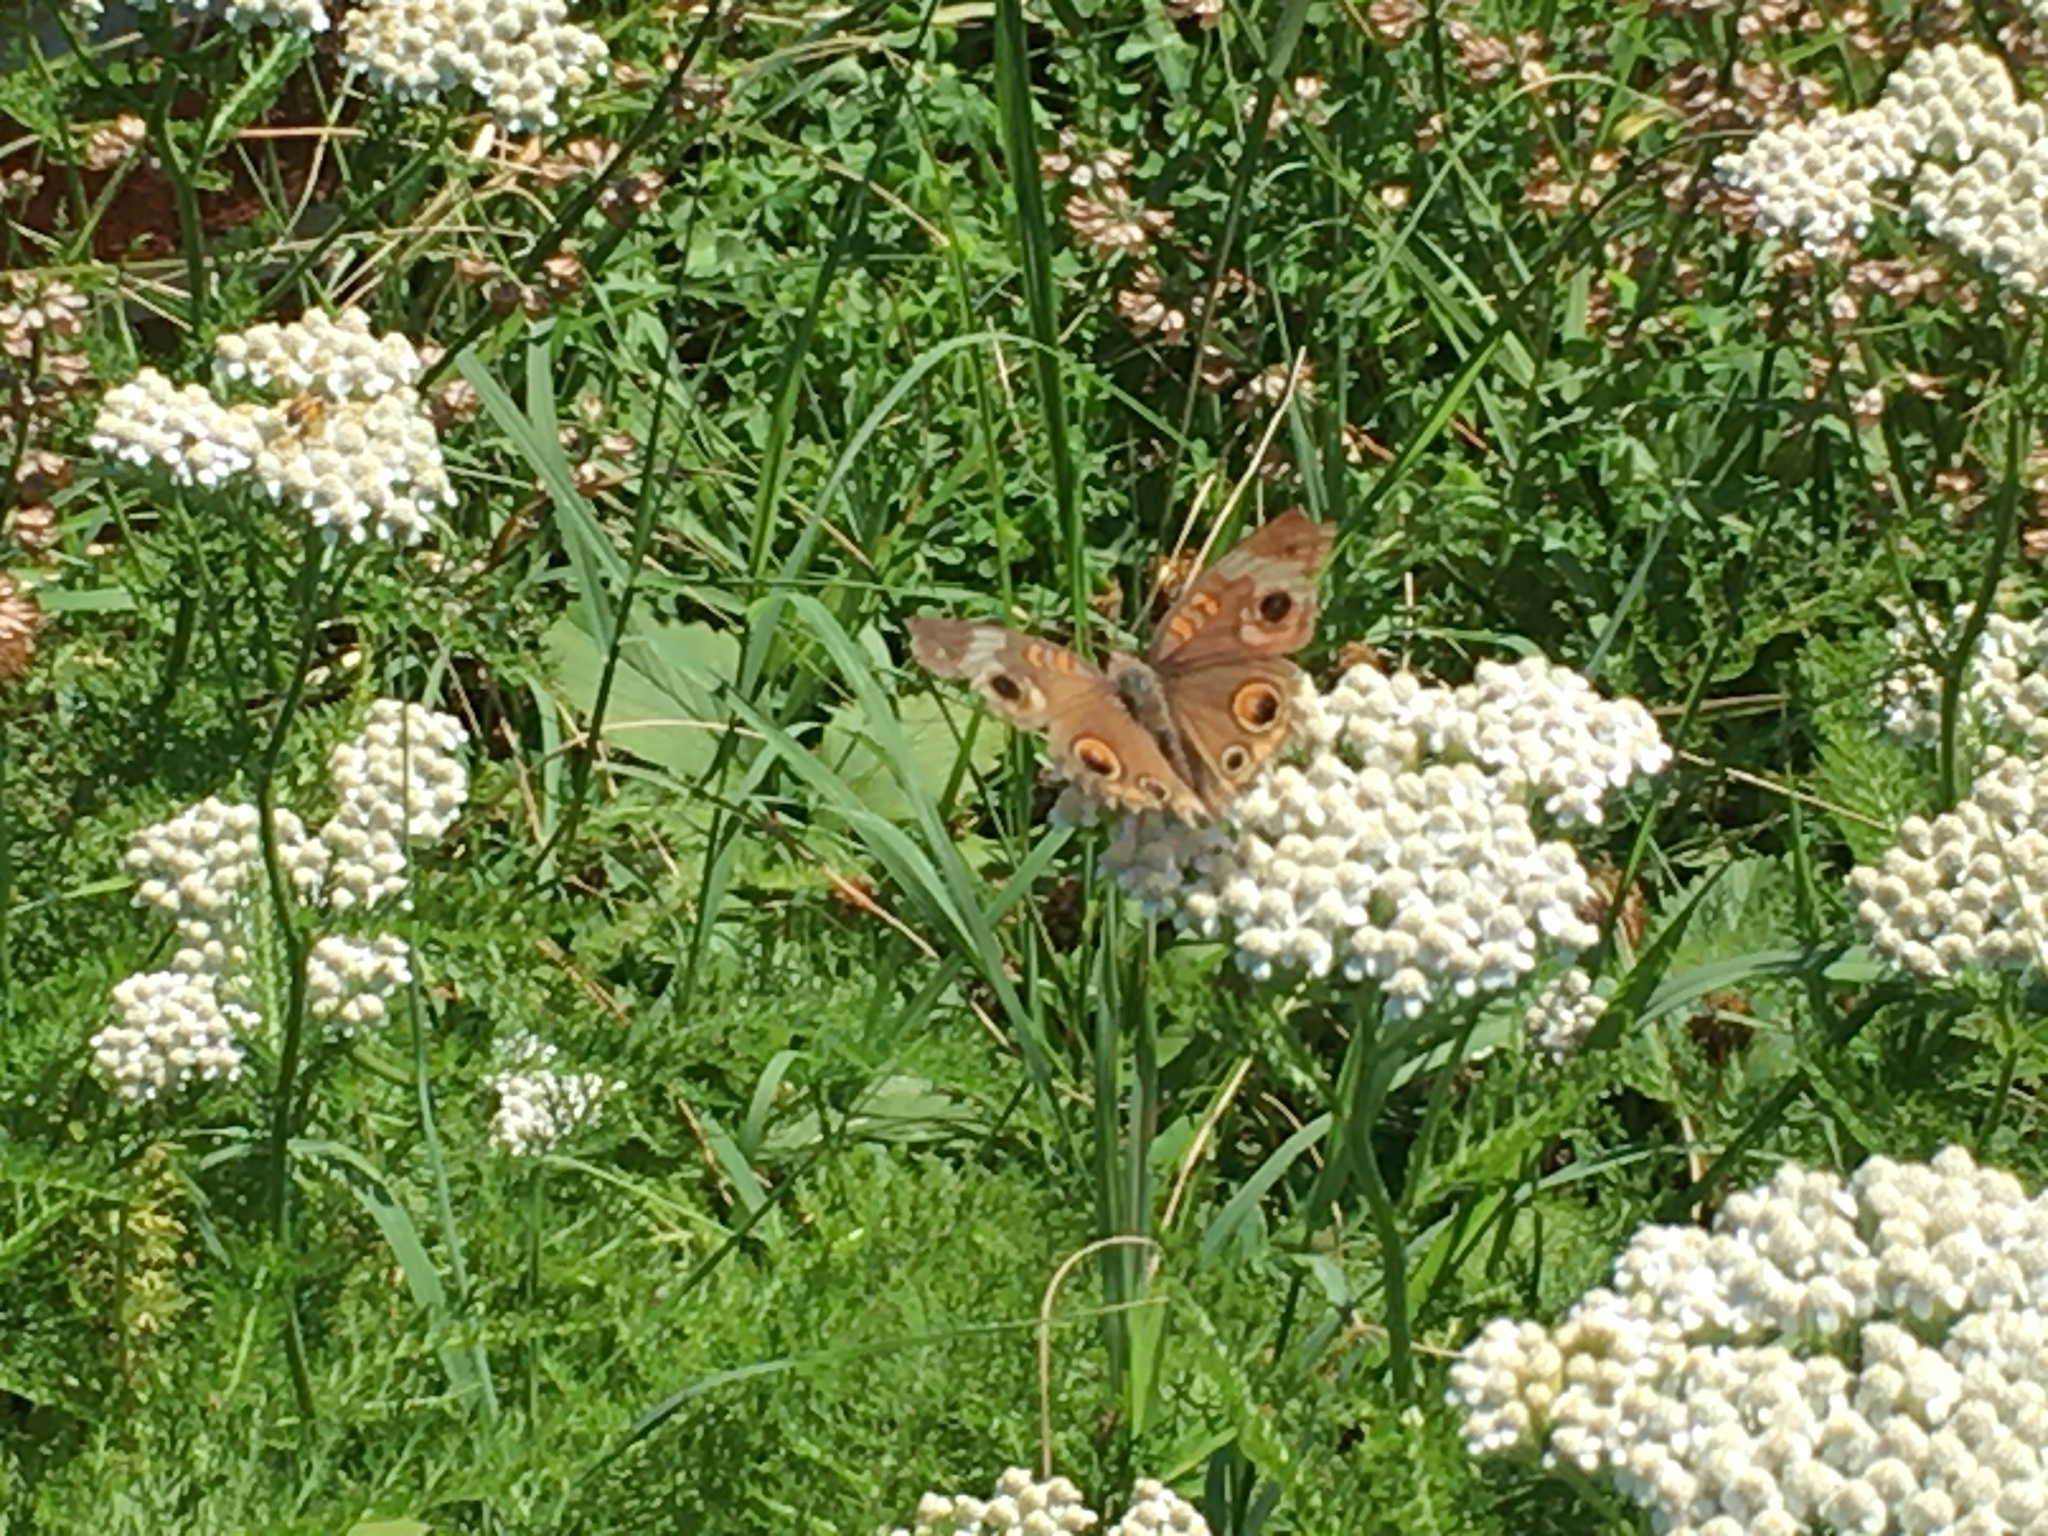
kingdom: Animalia
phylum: Arthropoda
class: Insecta
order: Lepidoptera
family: Nymphalidae
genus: Junonia
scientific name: Junonia coenia
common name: Common buckeye
